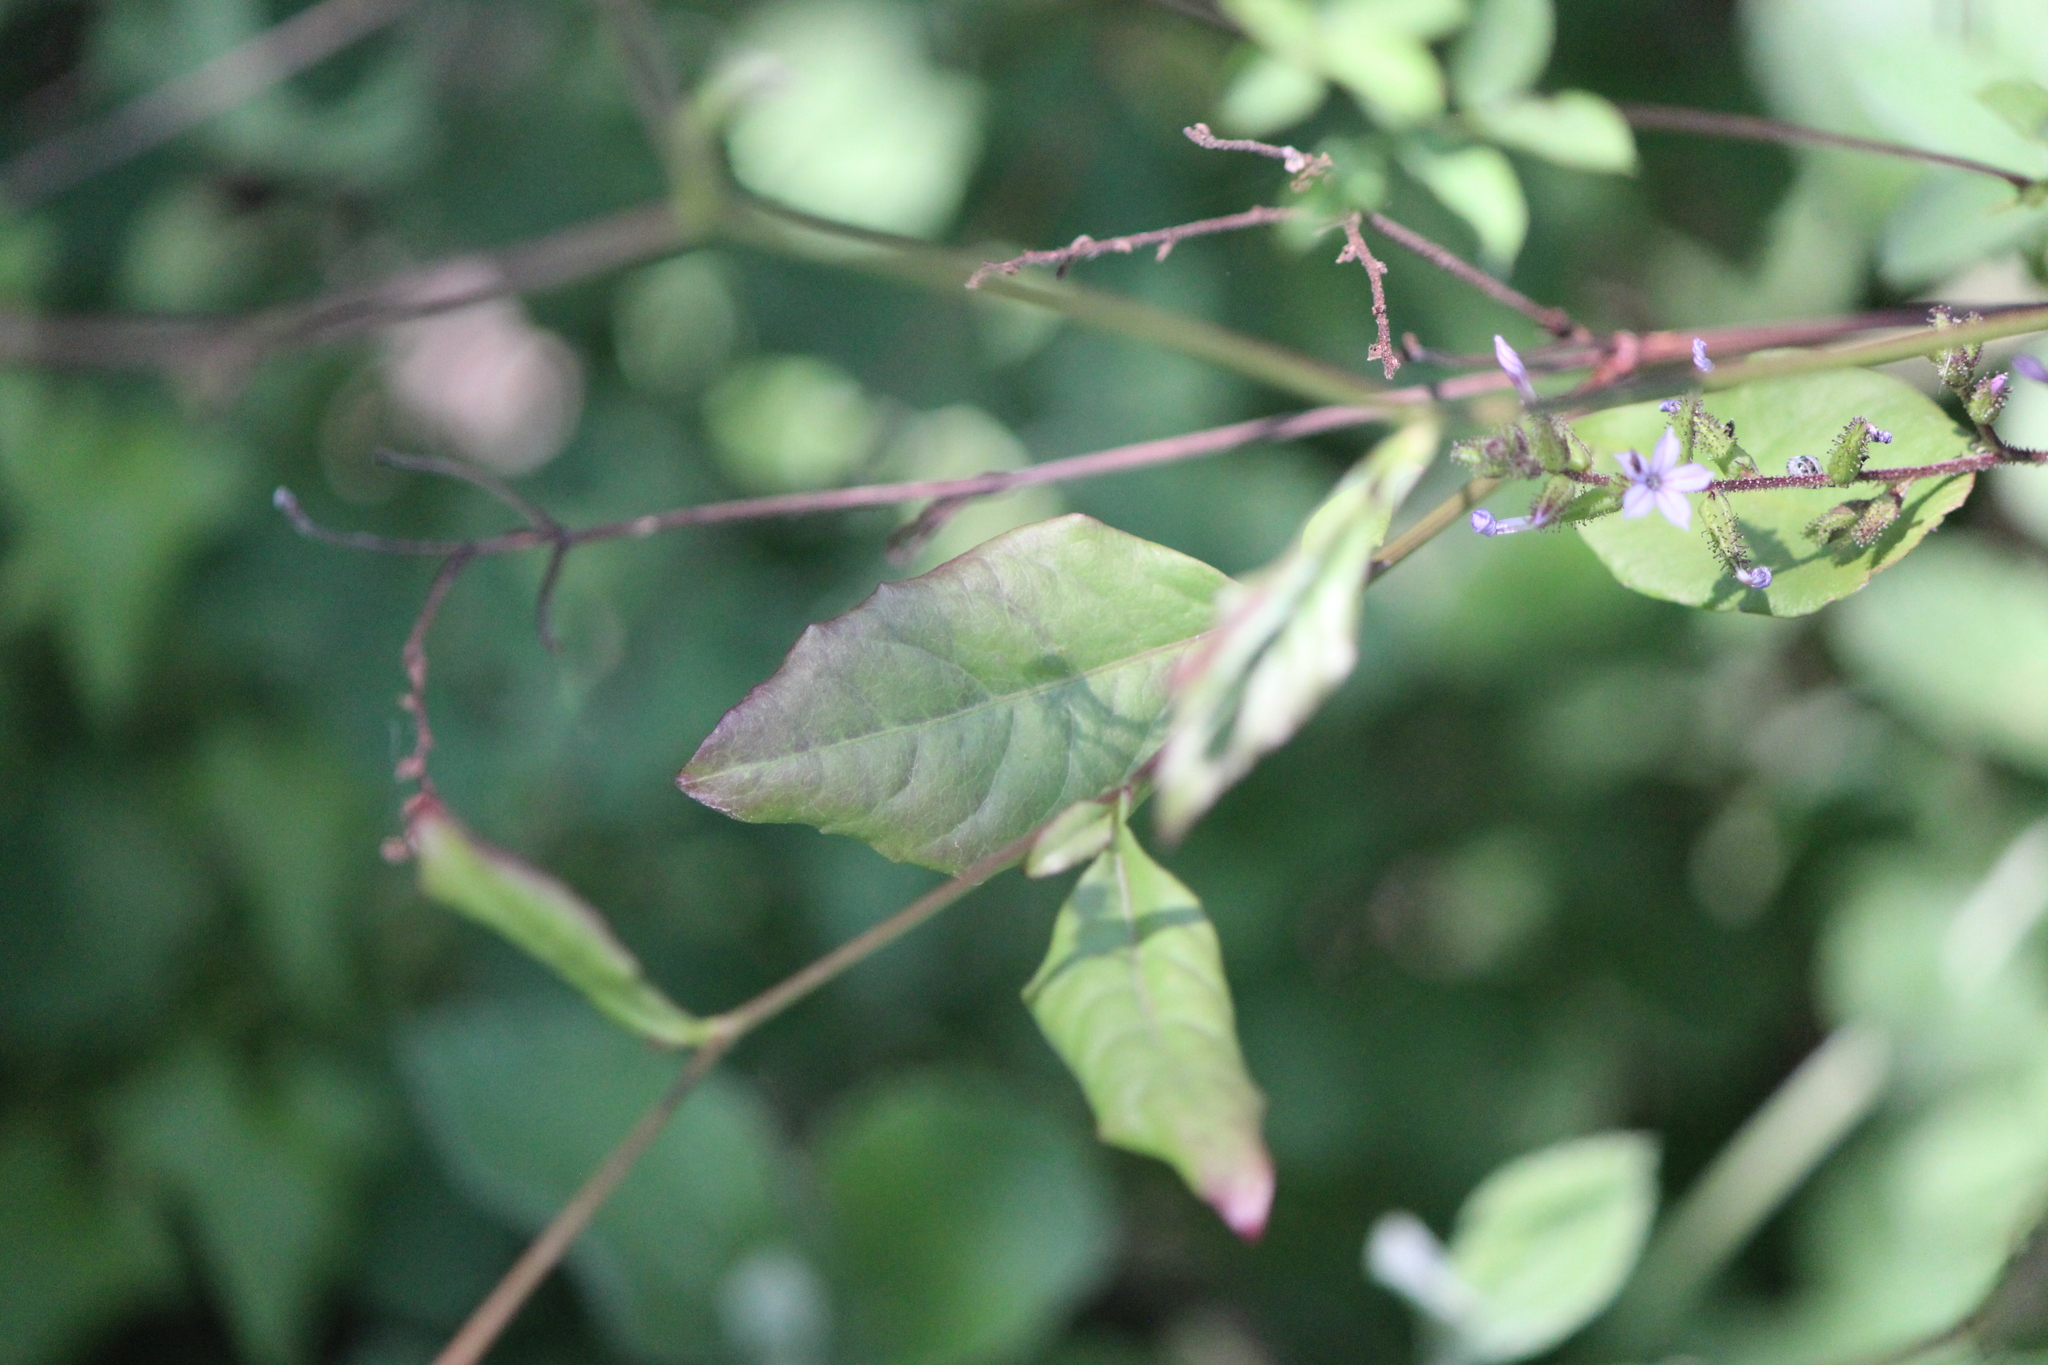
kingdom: Plantae
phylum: Tracheophyta
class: Magnoliopsida
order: Caryophyllales
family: Plumbaginaceae
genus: Plumbago
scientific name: Plumbago pulchella
